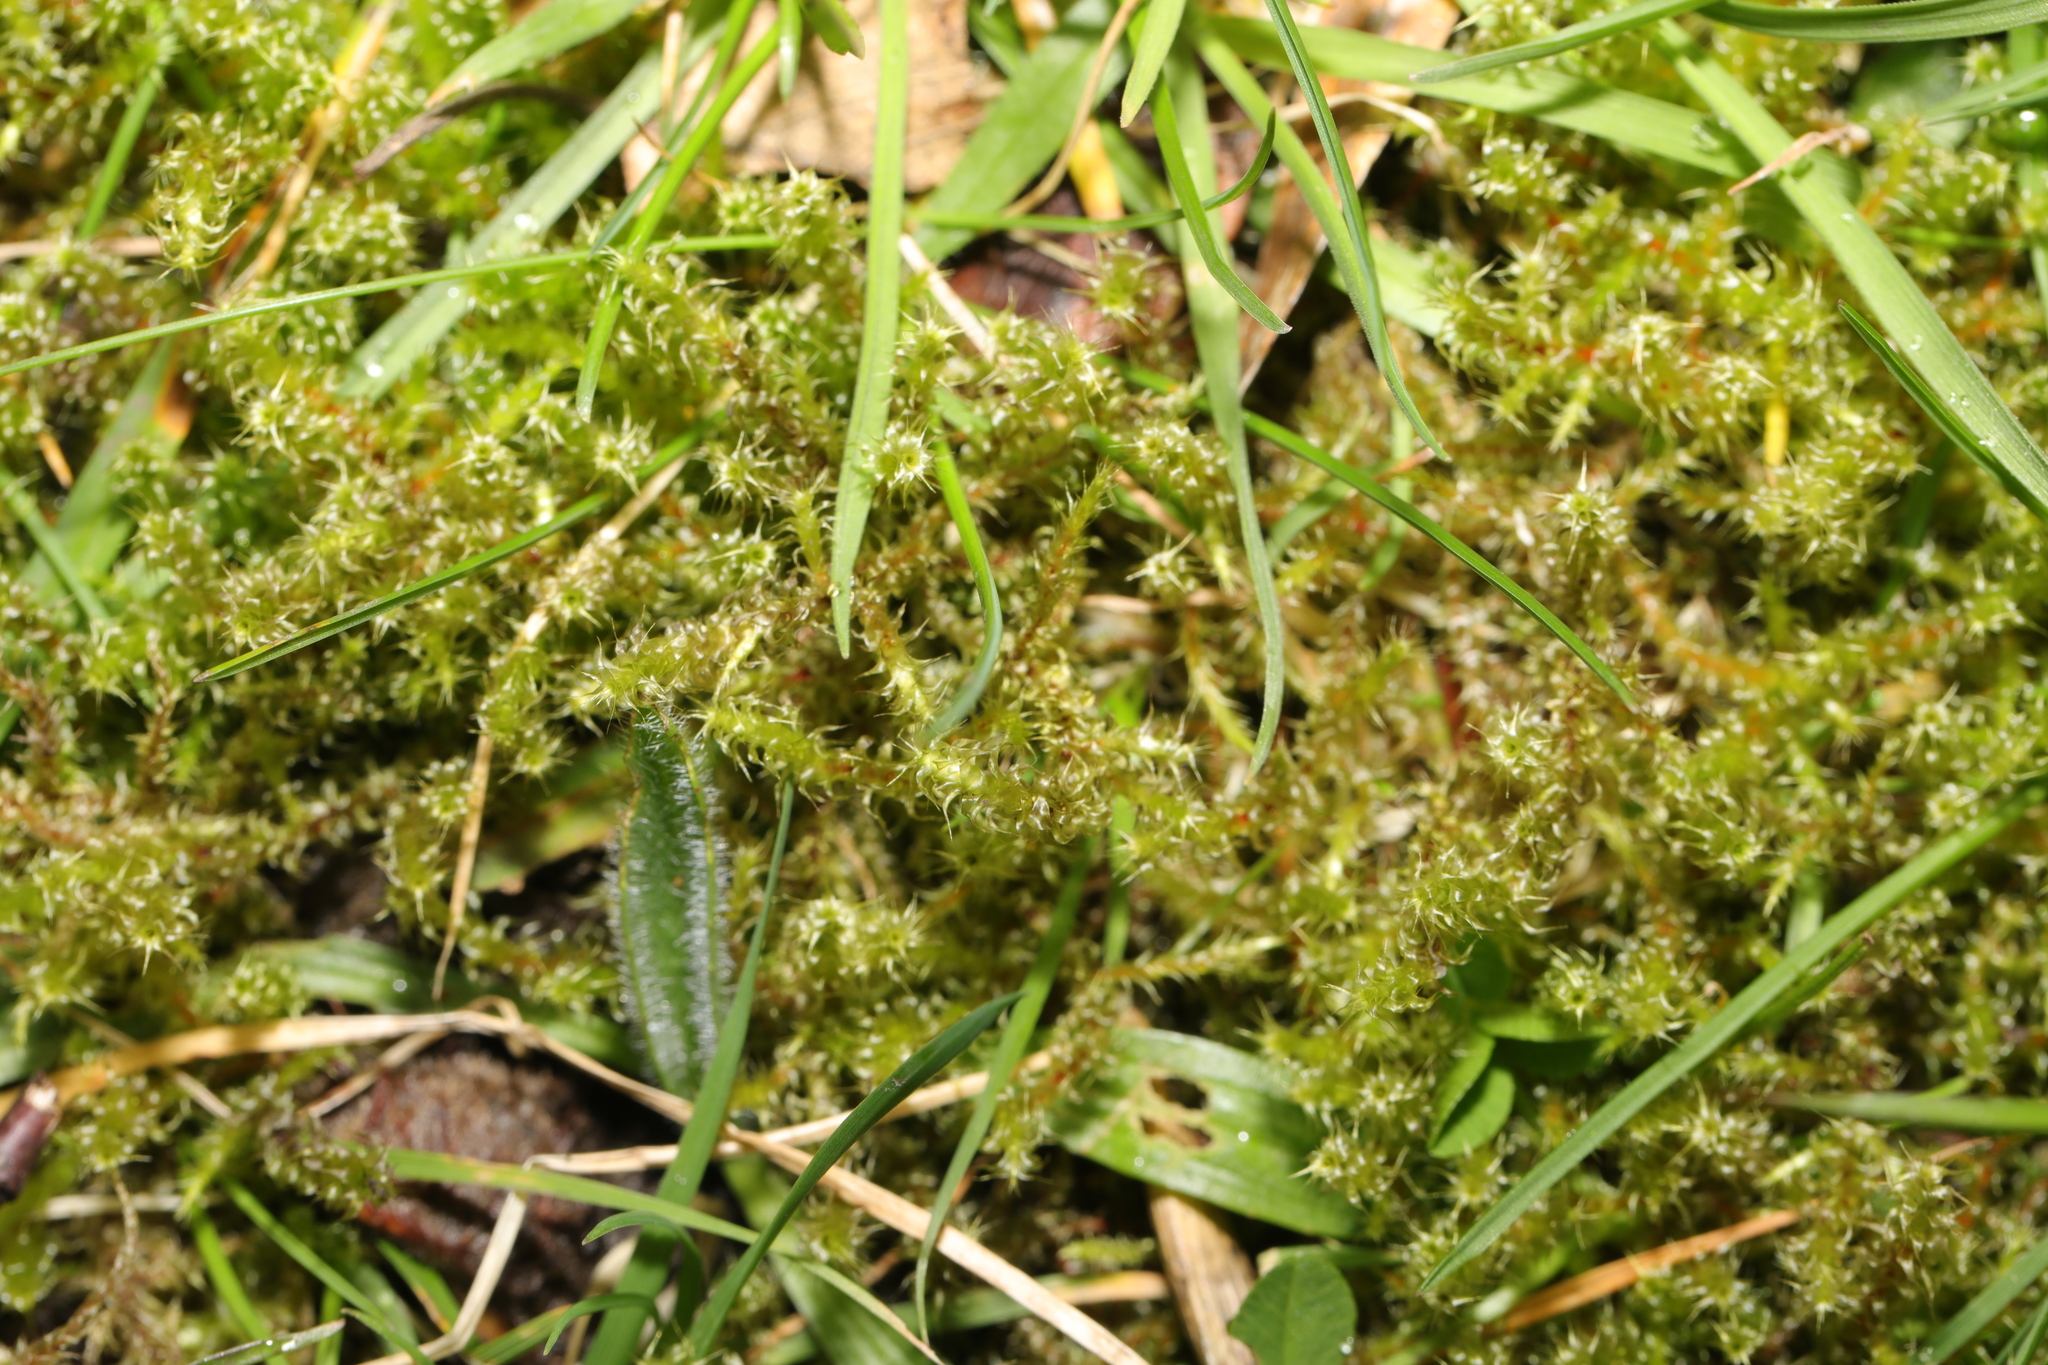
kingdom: Plantae
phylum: Bryophyta
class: Bryopsida
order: Hypnales
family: Hylocomiaceae
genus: Rhytidiadelphus
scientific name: Rhytidiadelphus squarrosus
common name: Springy turf-moss
